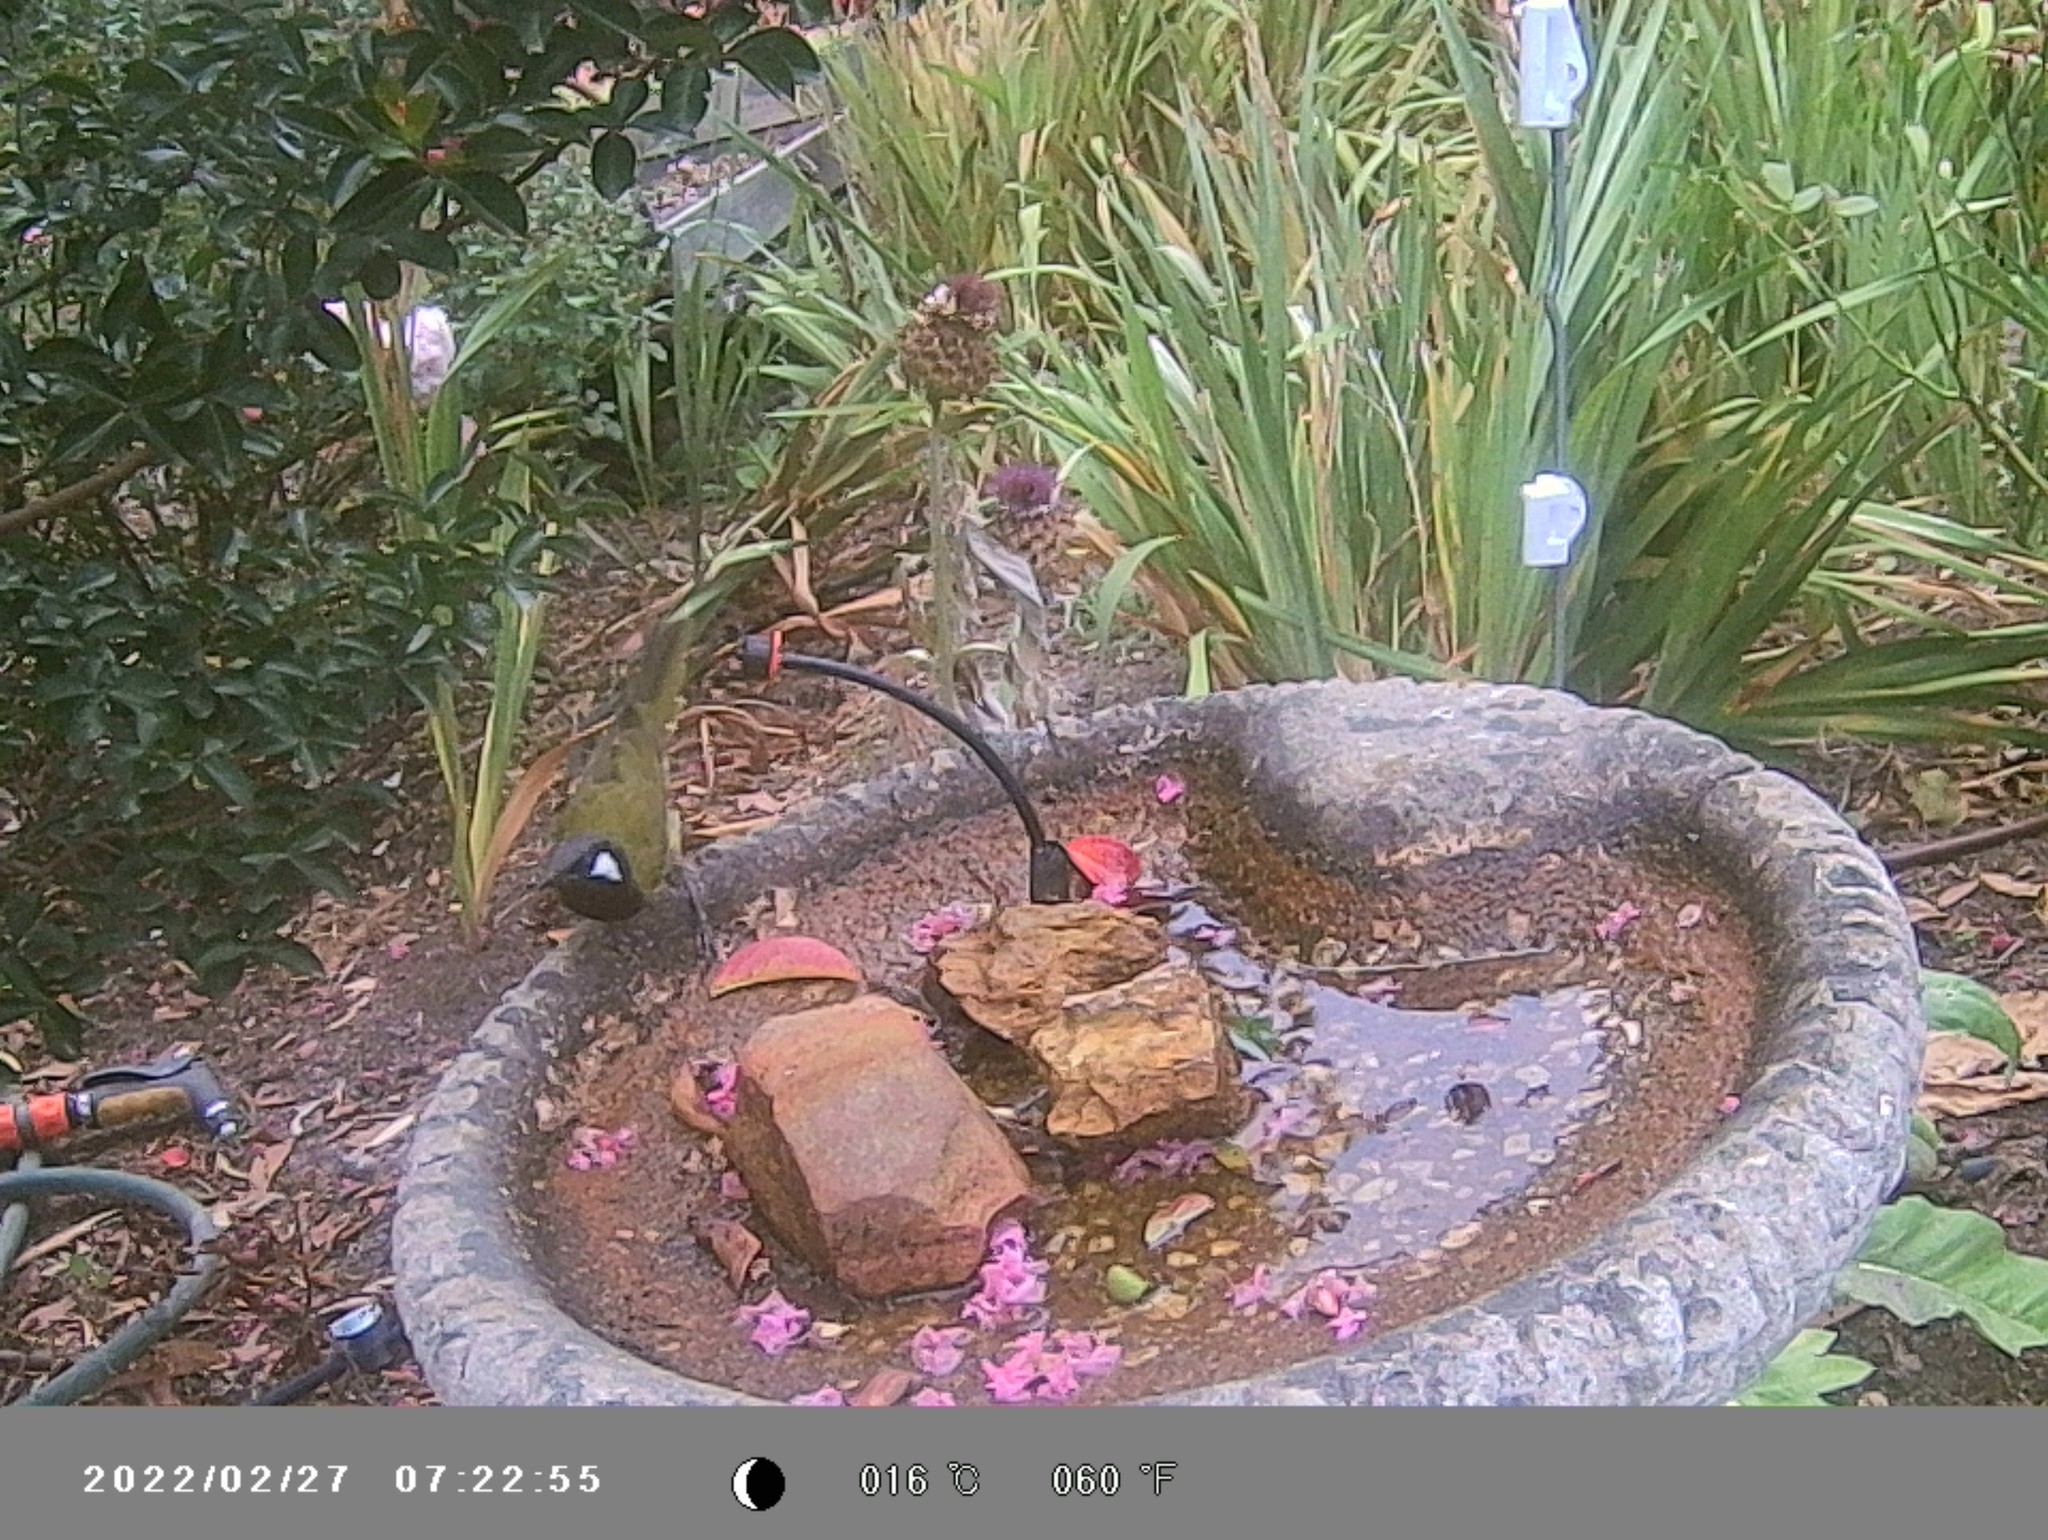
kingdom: Animalia
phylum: Chordata
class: Aves
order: Passeriformes
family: Meliphagidae
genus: Nesoptilotis
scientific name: Nesoptilotis leucotis
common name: White-eared honeyeater
